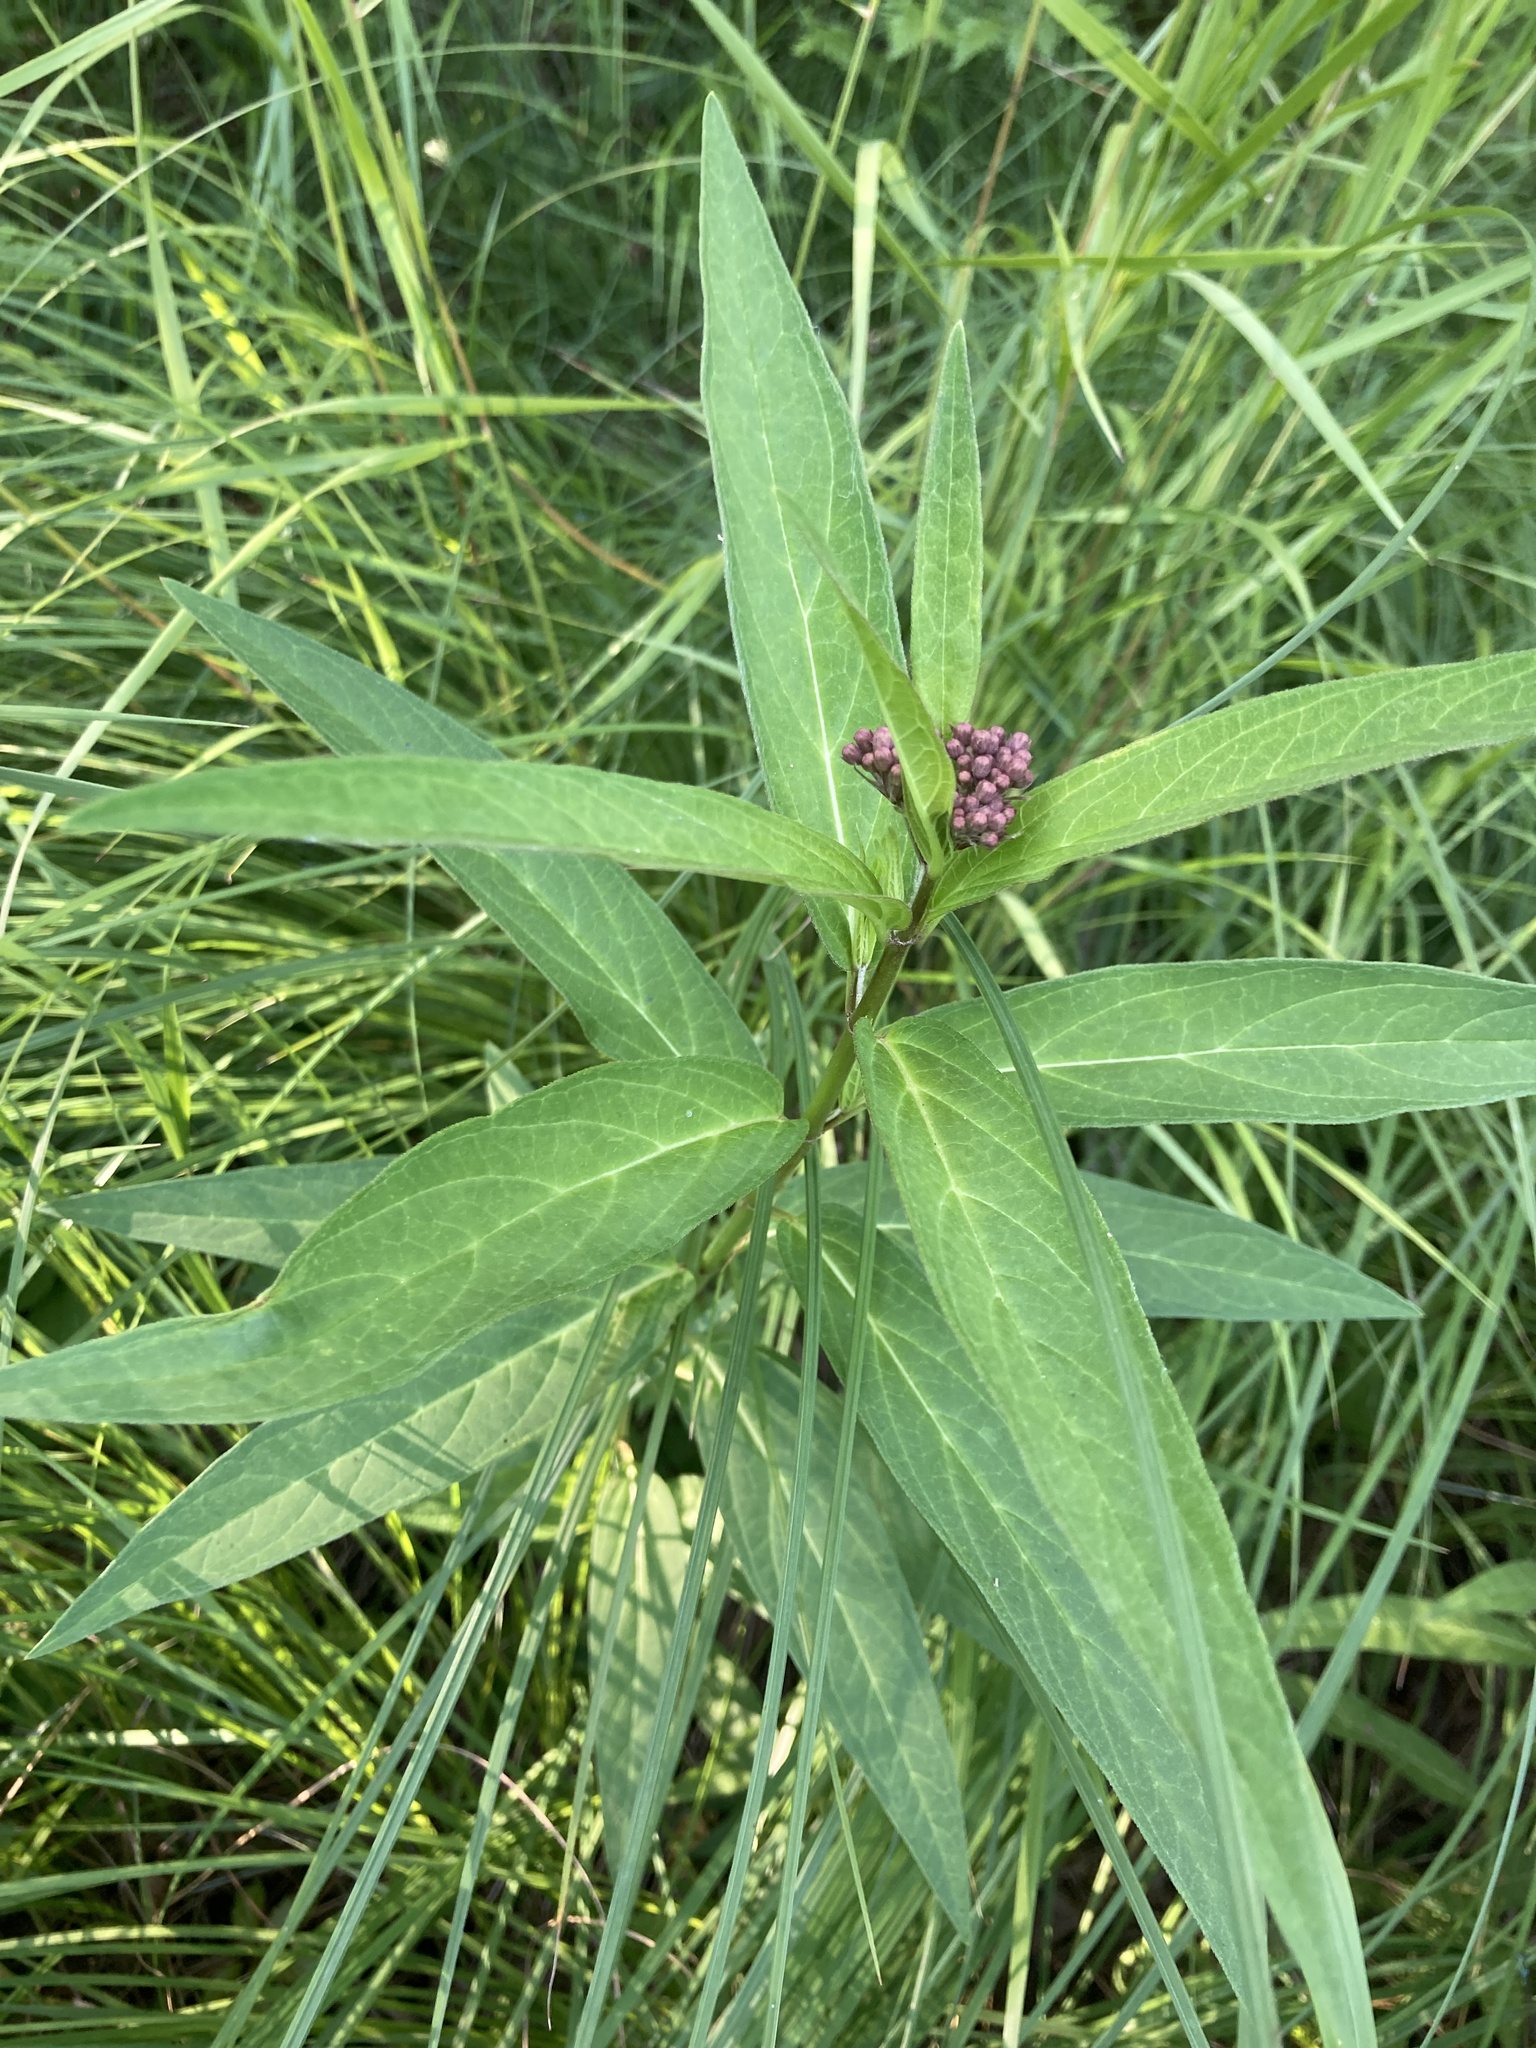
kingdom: Plantae
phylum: Tracheophyta
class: Magnoliopsida
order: Gentianales
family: Apocynaceae
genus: Asclepias
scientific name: Asclepias incarnata
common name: Swamp milkweed
